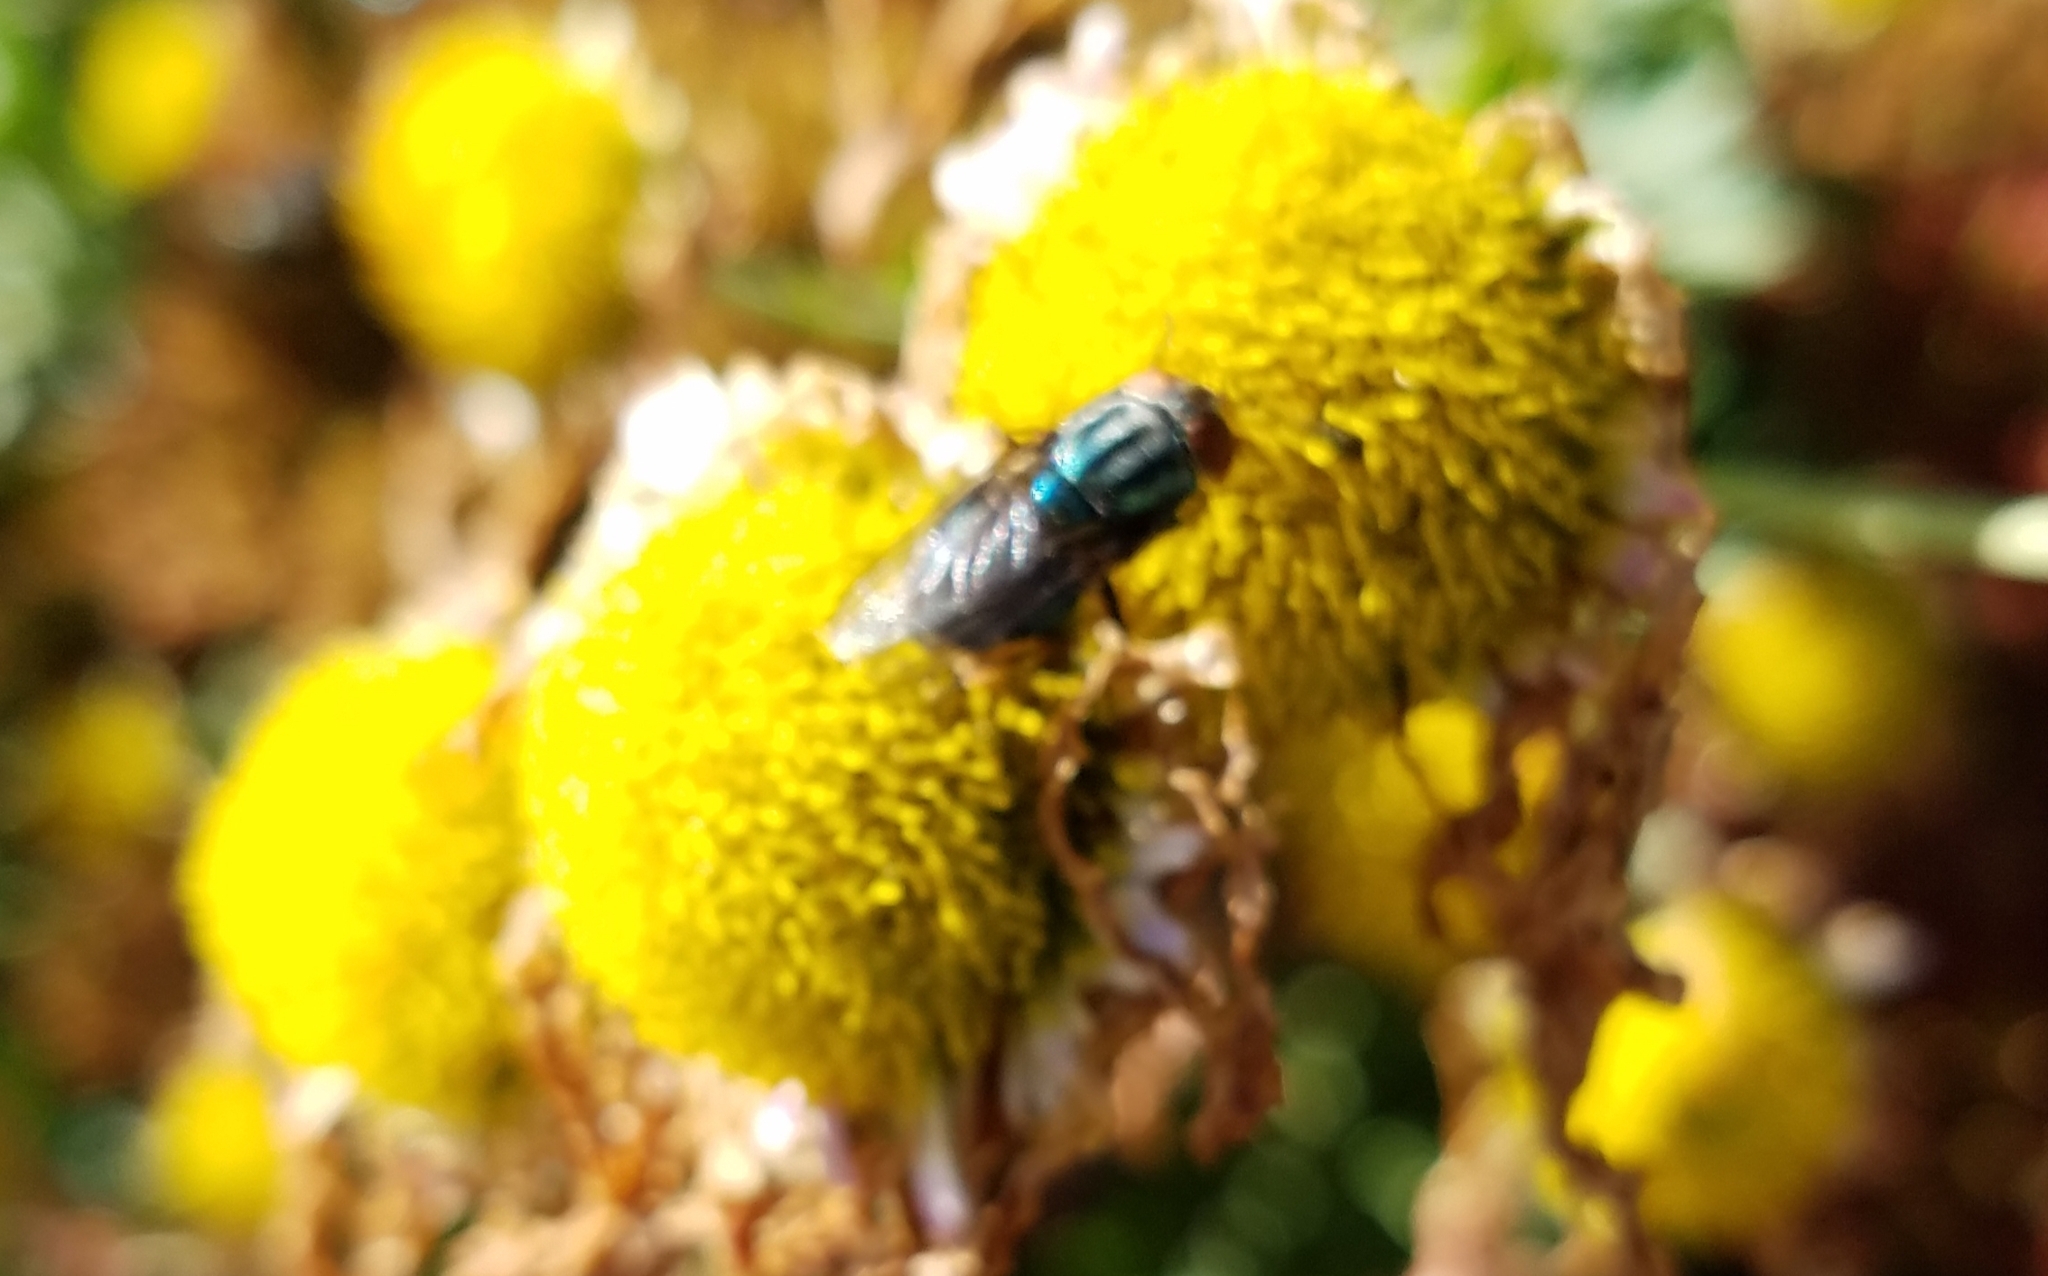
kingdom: Animalia
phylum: Arthropoda
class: Insecta
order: Diptera
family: Calliphoridae
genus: Cochliomyia
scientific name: Cochliomyia macellaria
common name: Secondary screwworm
